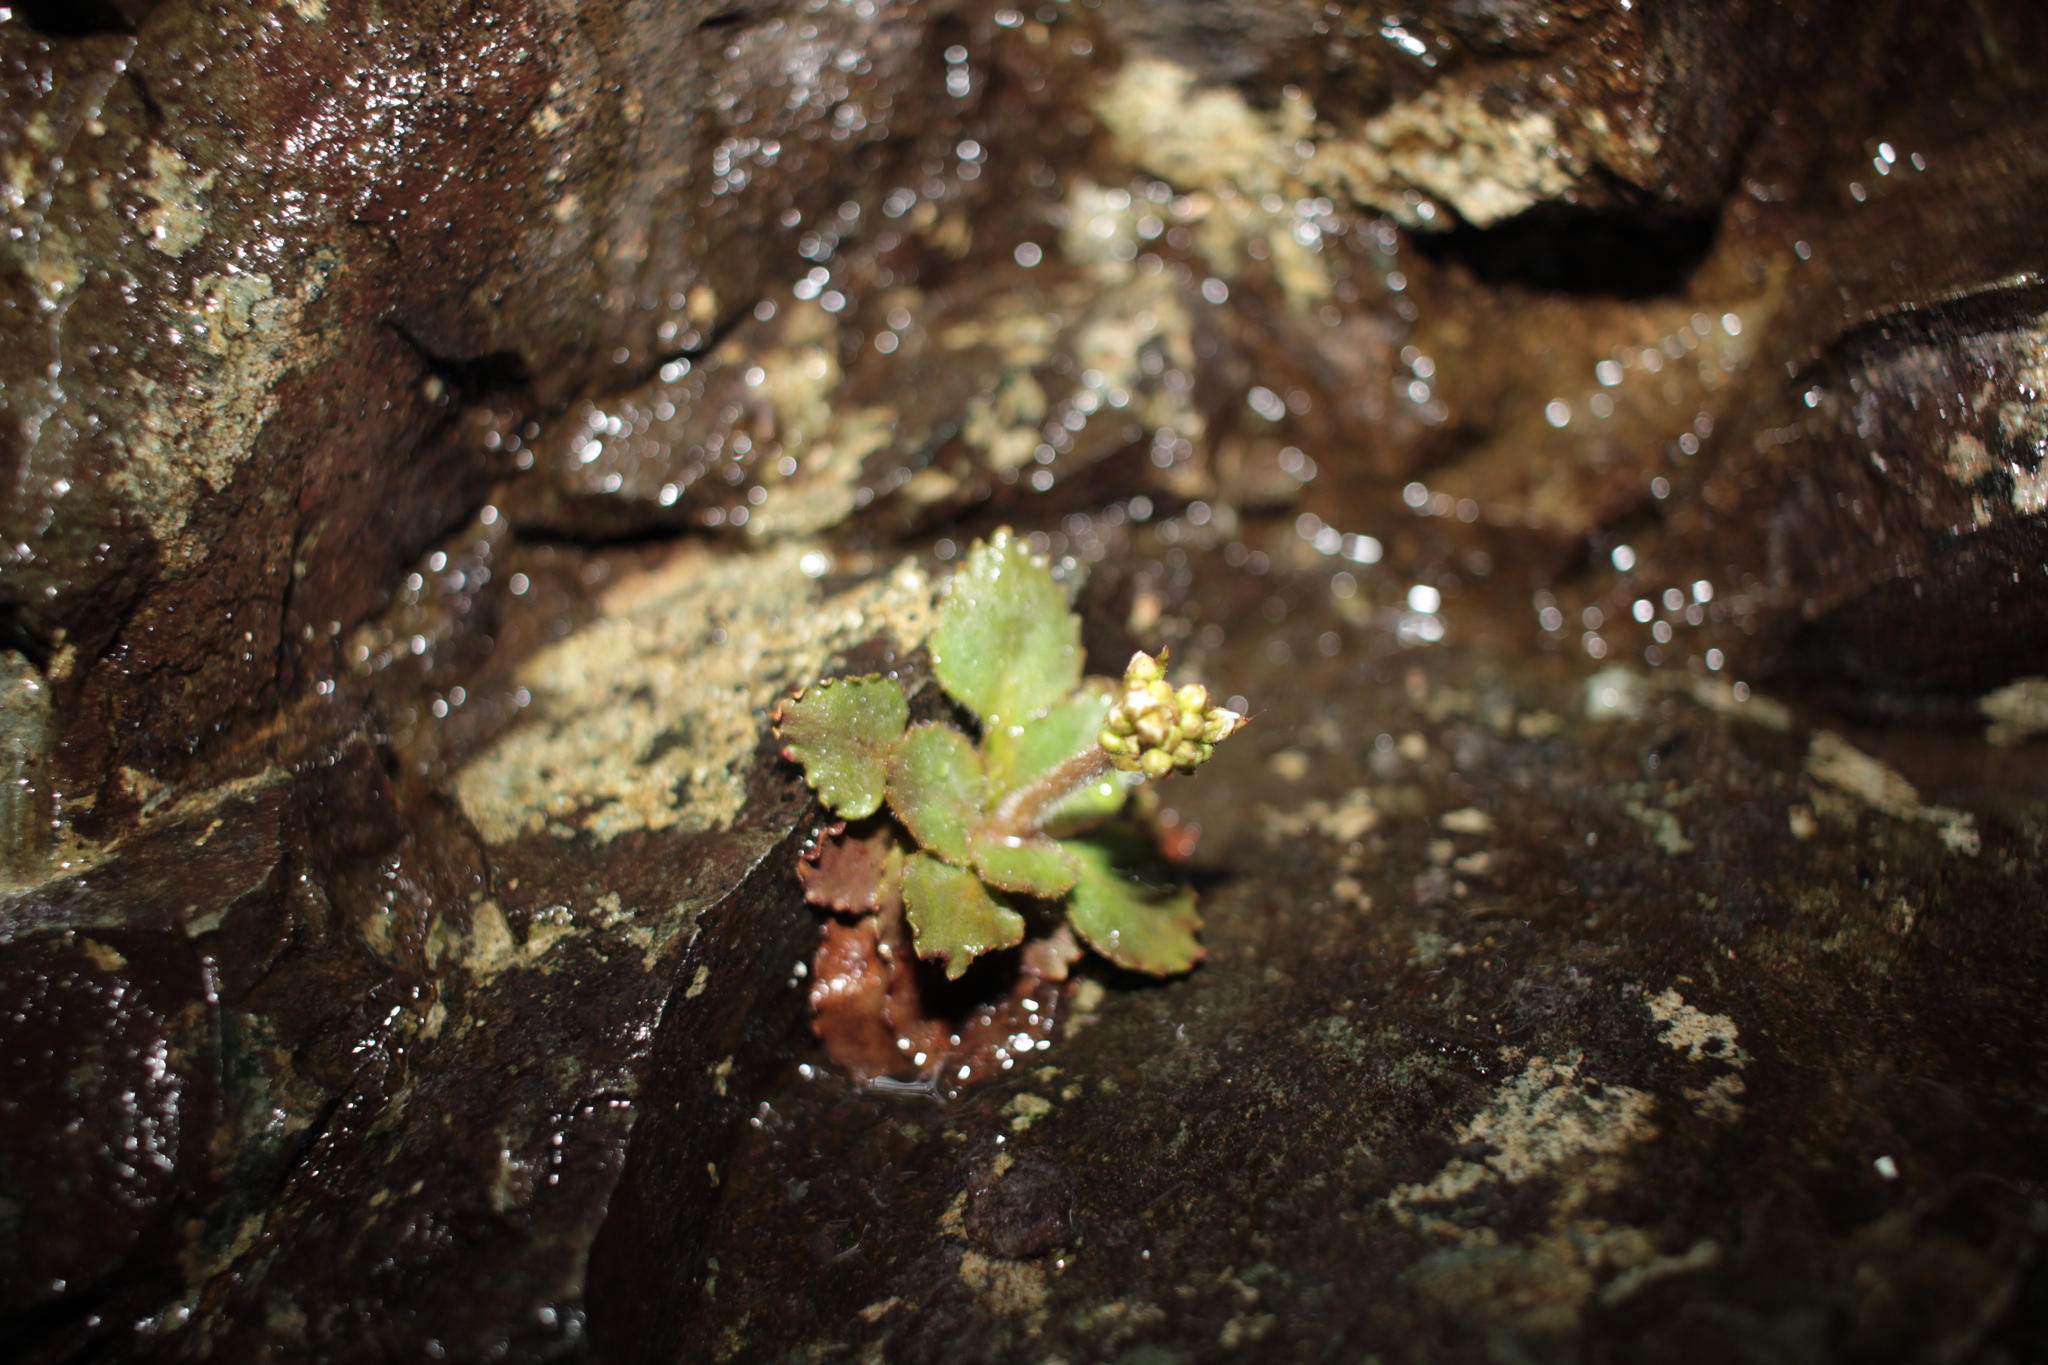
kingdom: Plantae
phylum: Tracheophyta
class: Magnoliopsida
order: Saxifragales
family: Saxifragaceae
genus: Micranthes
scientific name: Micranthes virginiensis
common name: Early saxifrage
